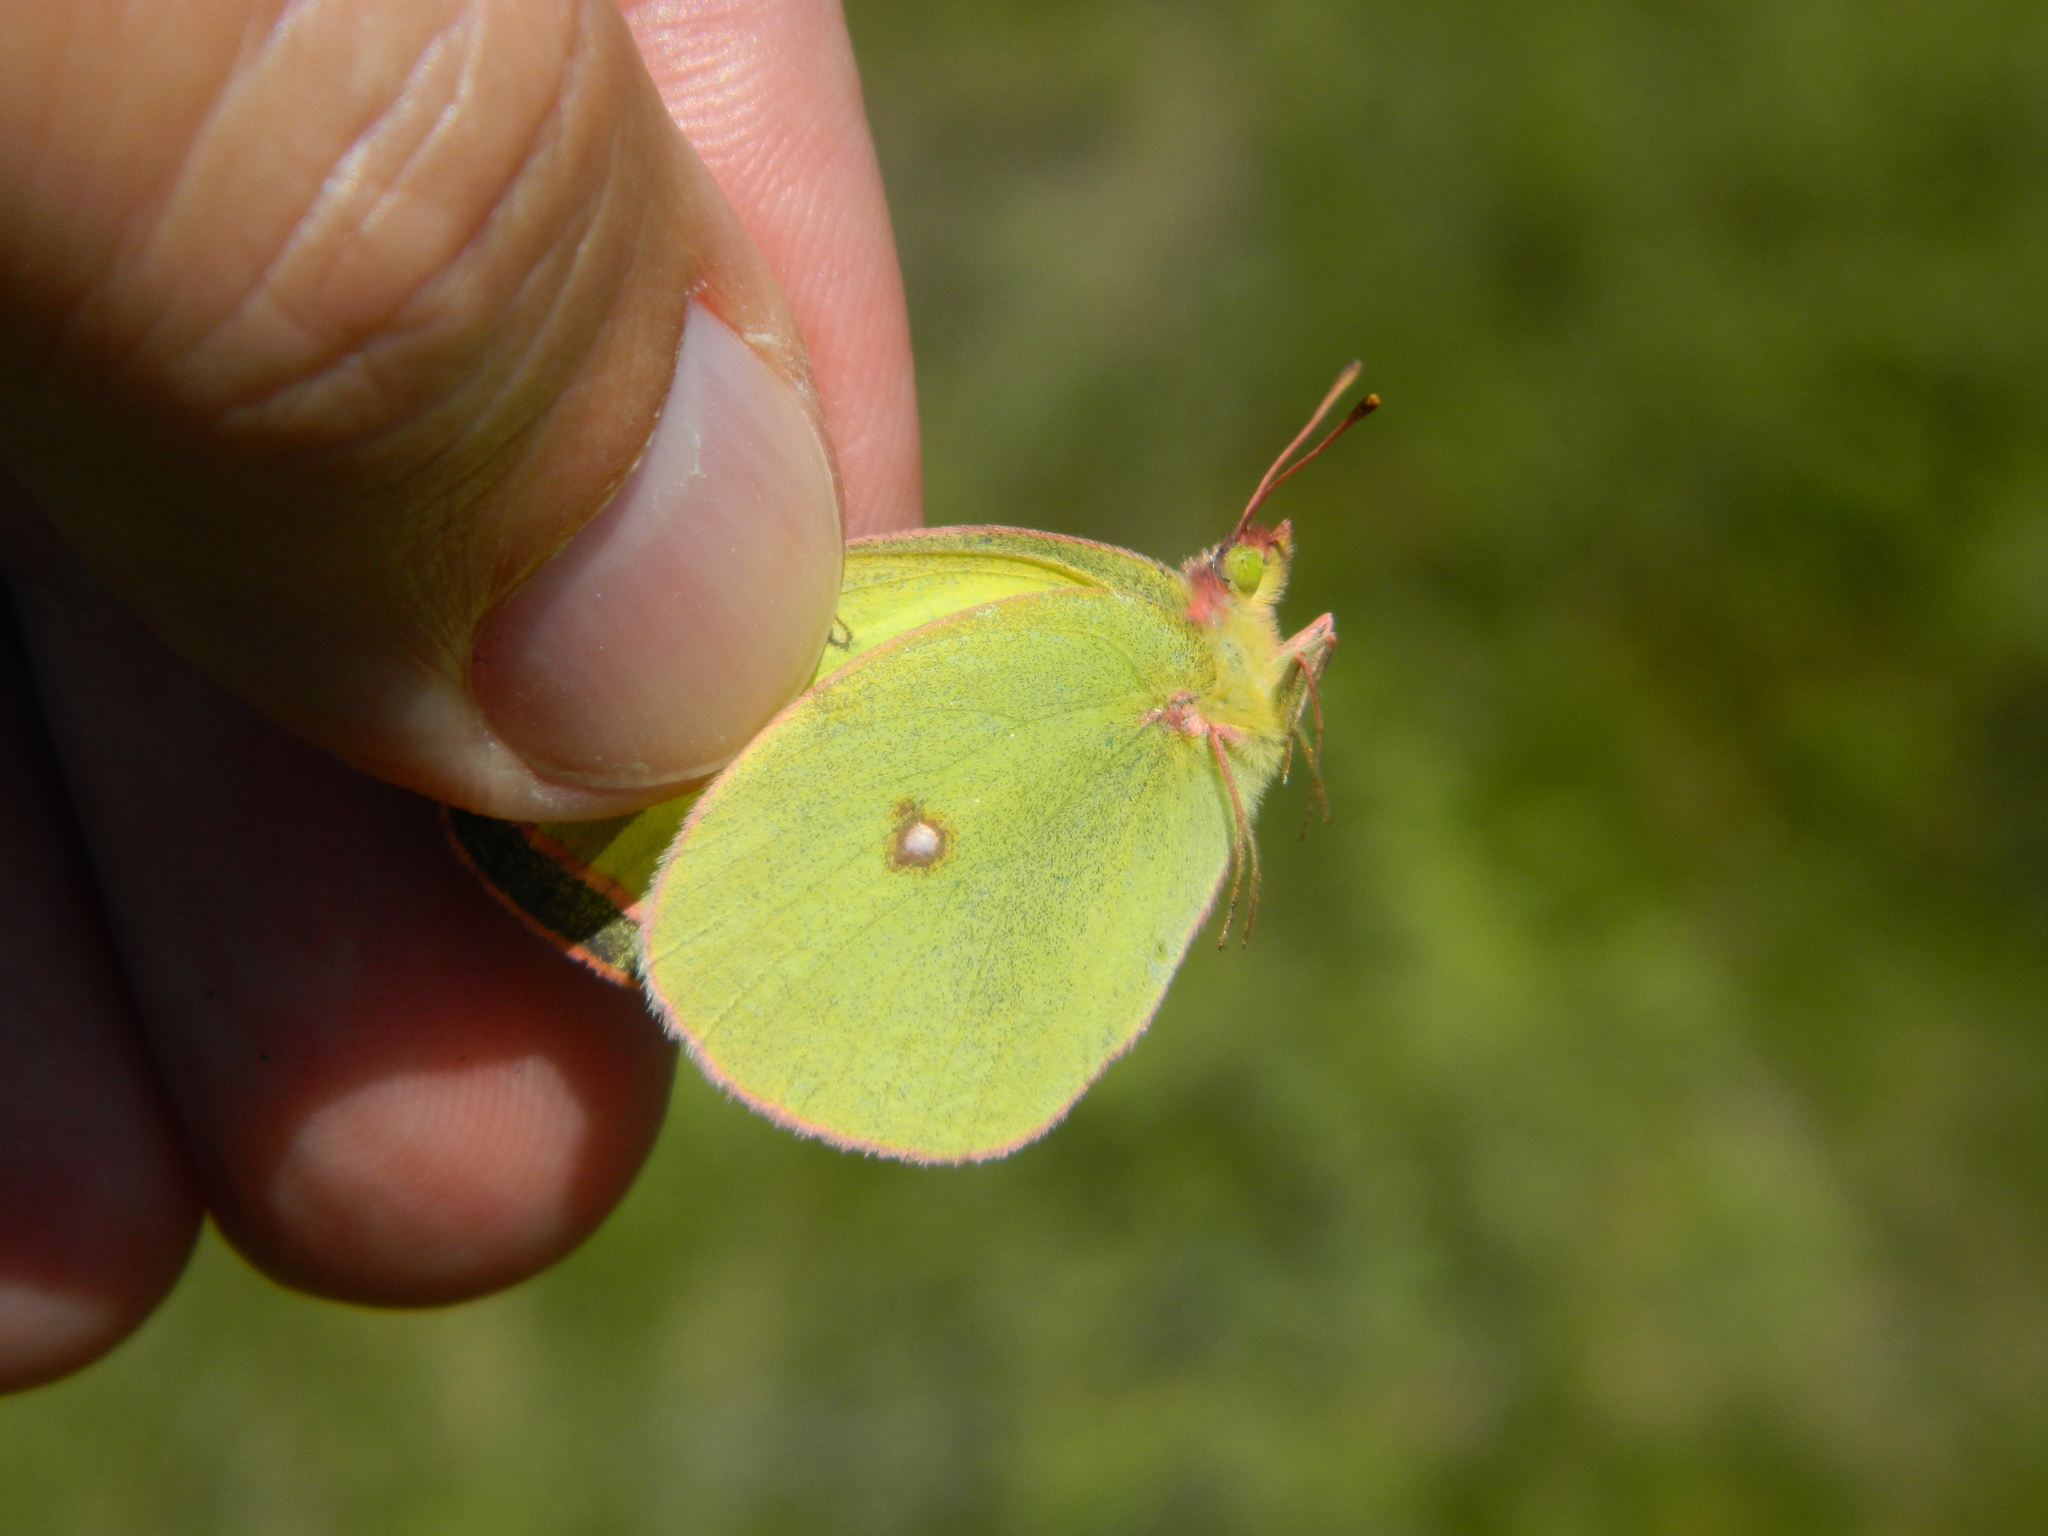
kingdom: Animalia
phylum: Arthropoda
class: Insecta
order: Lepidoptera
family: Pieridae
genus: Colias
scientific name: Colias interior
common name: Pink-edged sulphur
